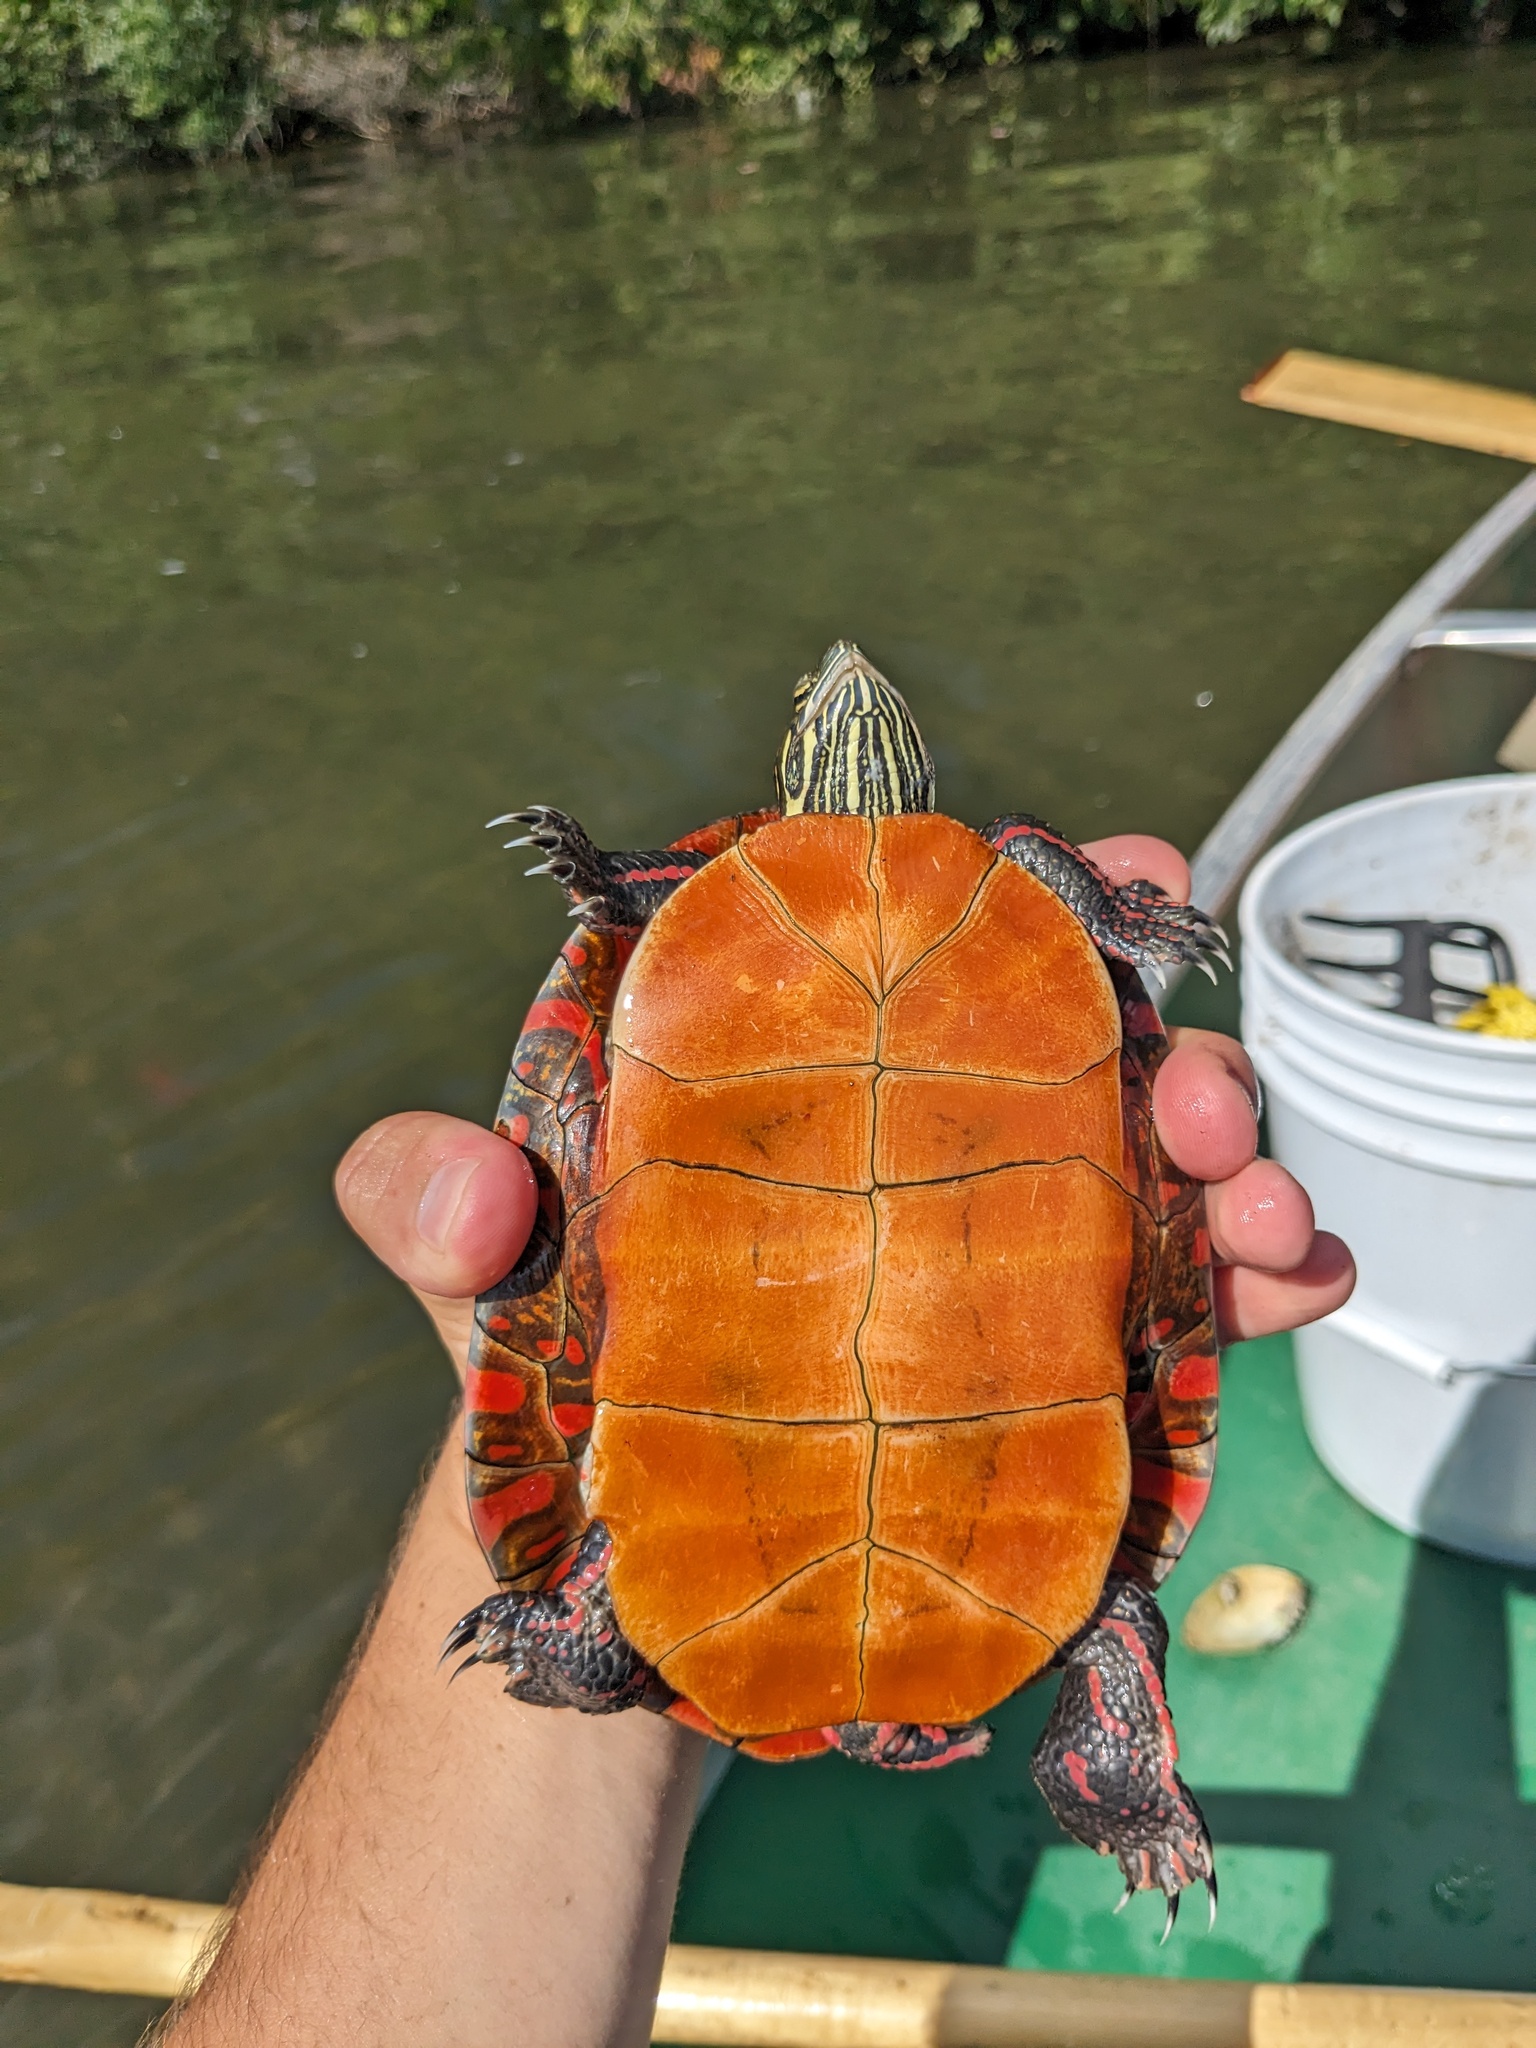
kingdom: Animalia
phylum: Chordata
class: Testudines
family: Emydidae
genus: Chrysemys
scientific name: Chrysemys picta
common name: Painted turtle
